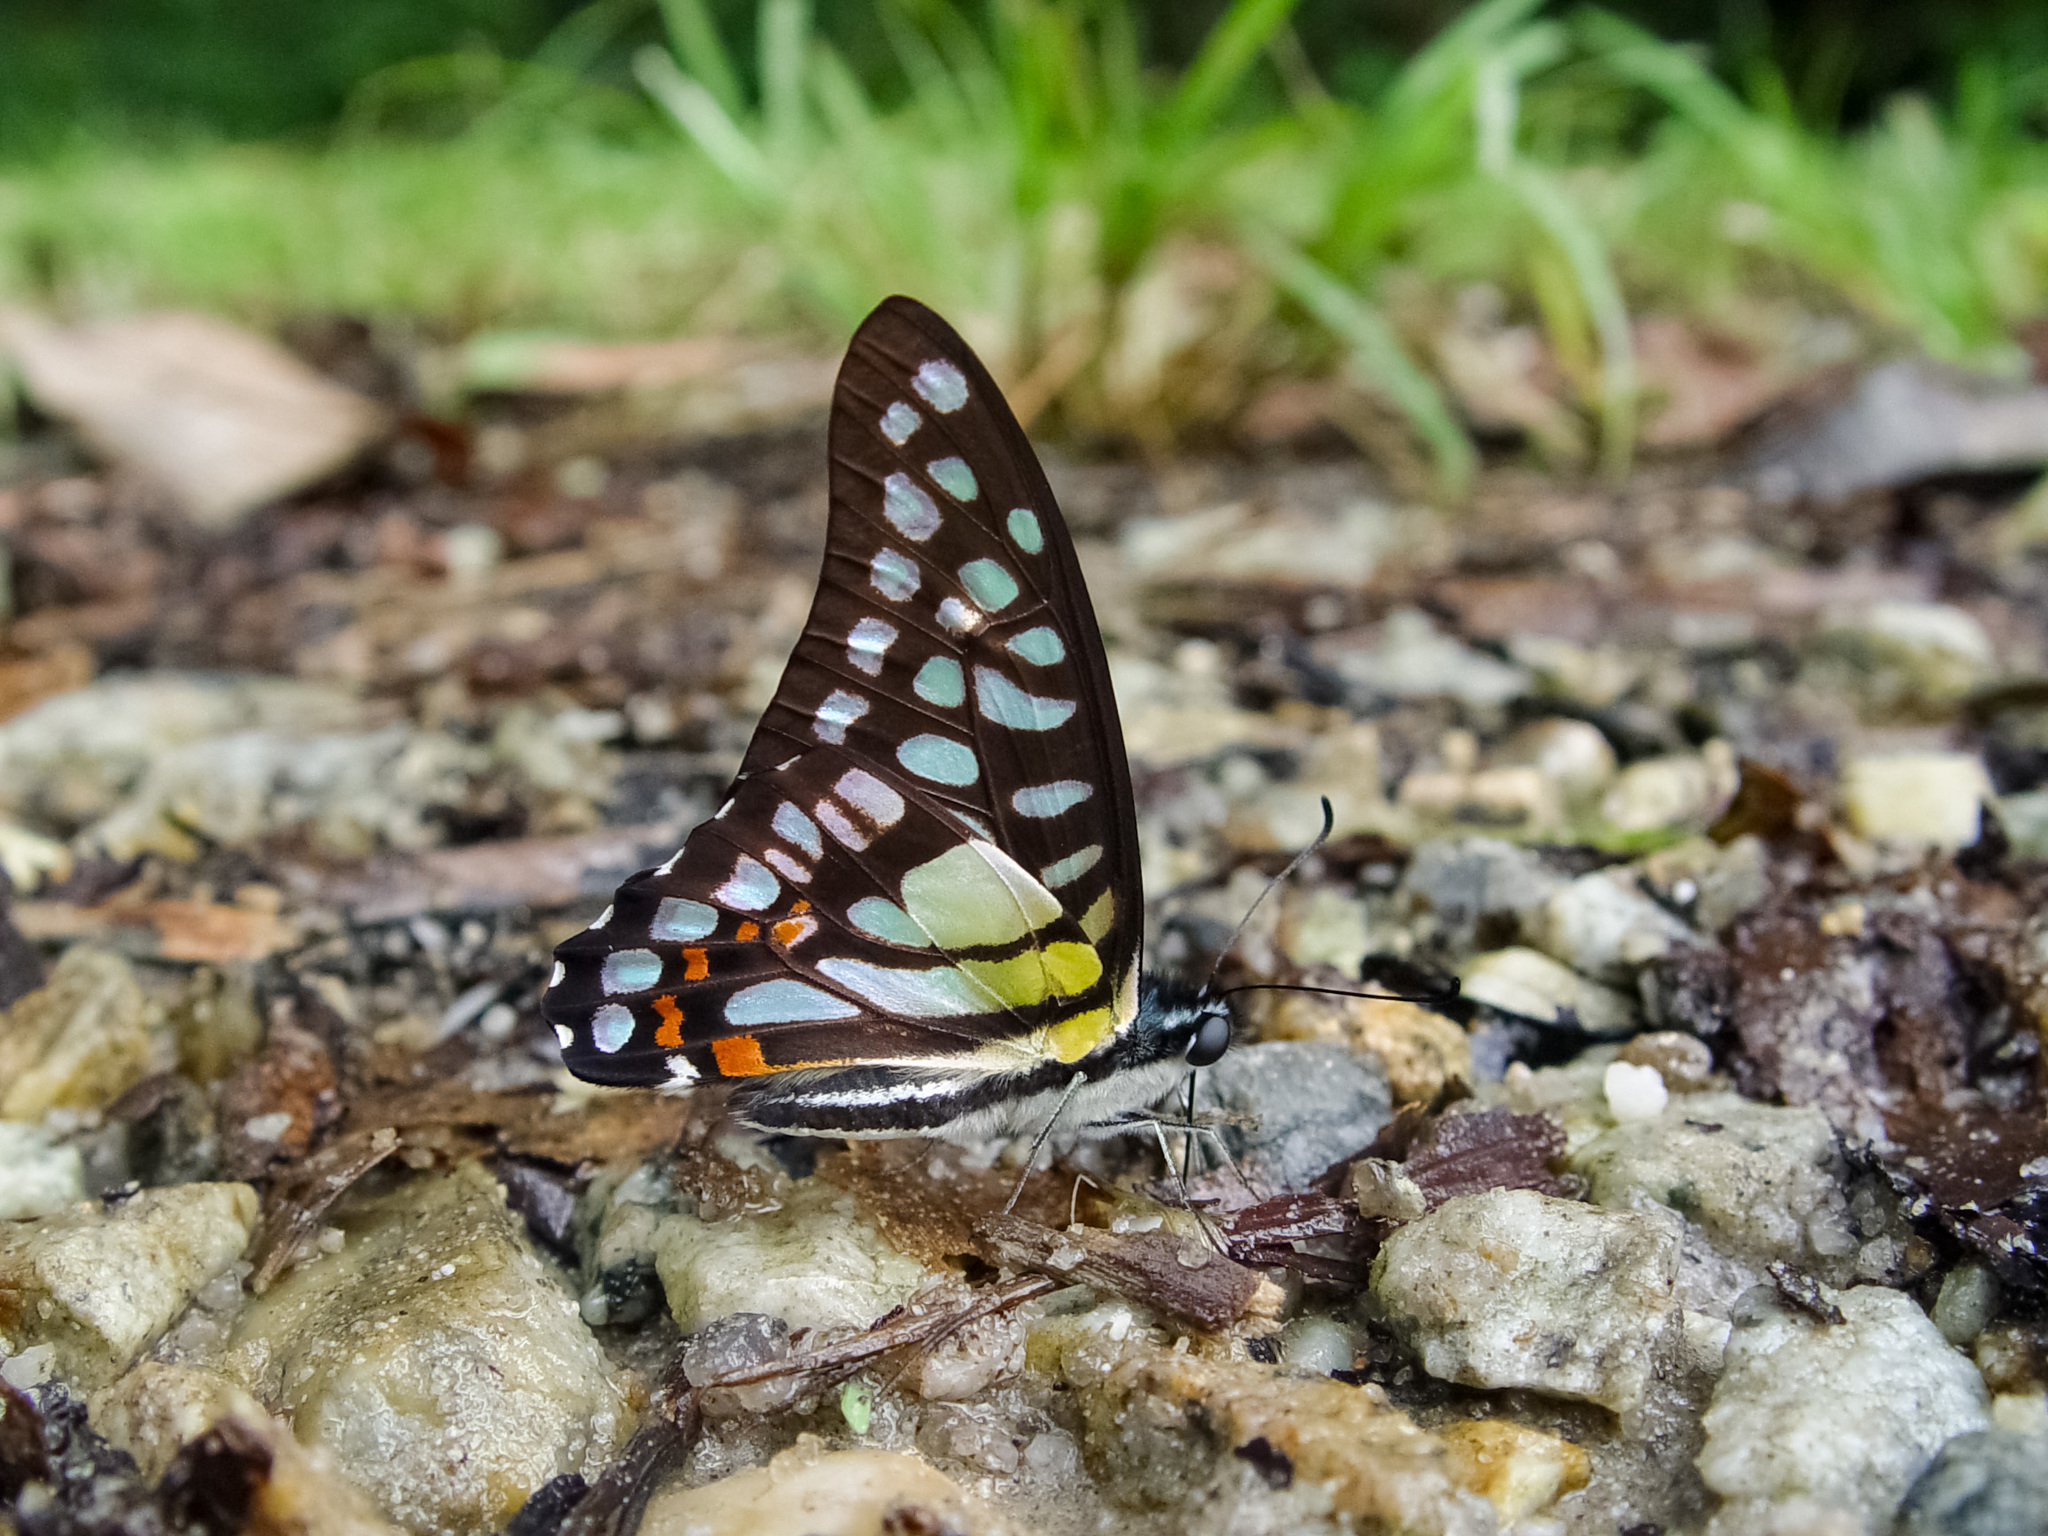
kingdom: Animalia
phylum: Arthropoda
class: Insecta
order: Lepidoptera
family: Papilionidae
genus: Graphium
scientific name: Graphium bathycles
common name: Veined jay
